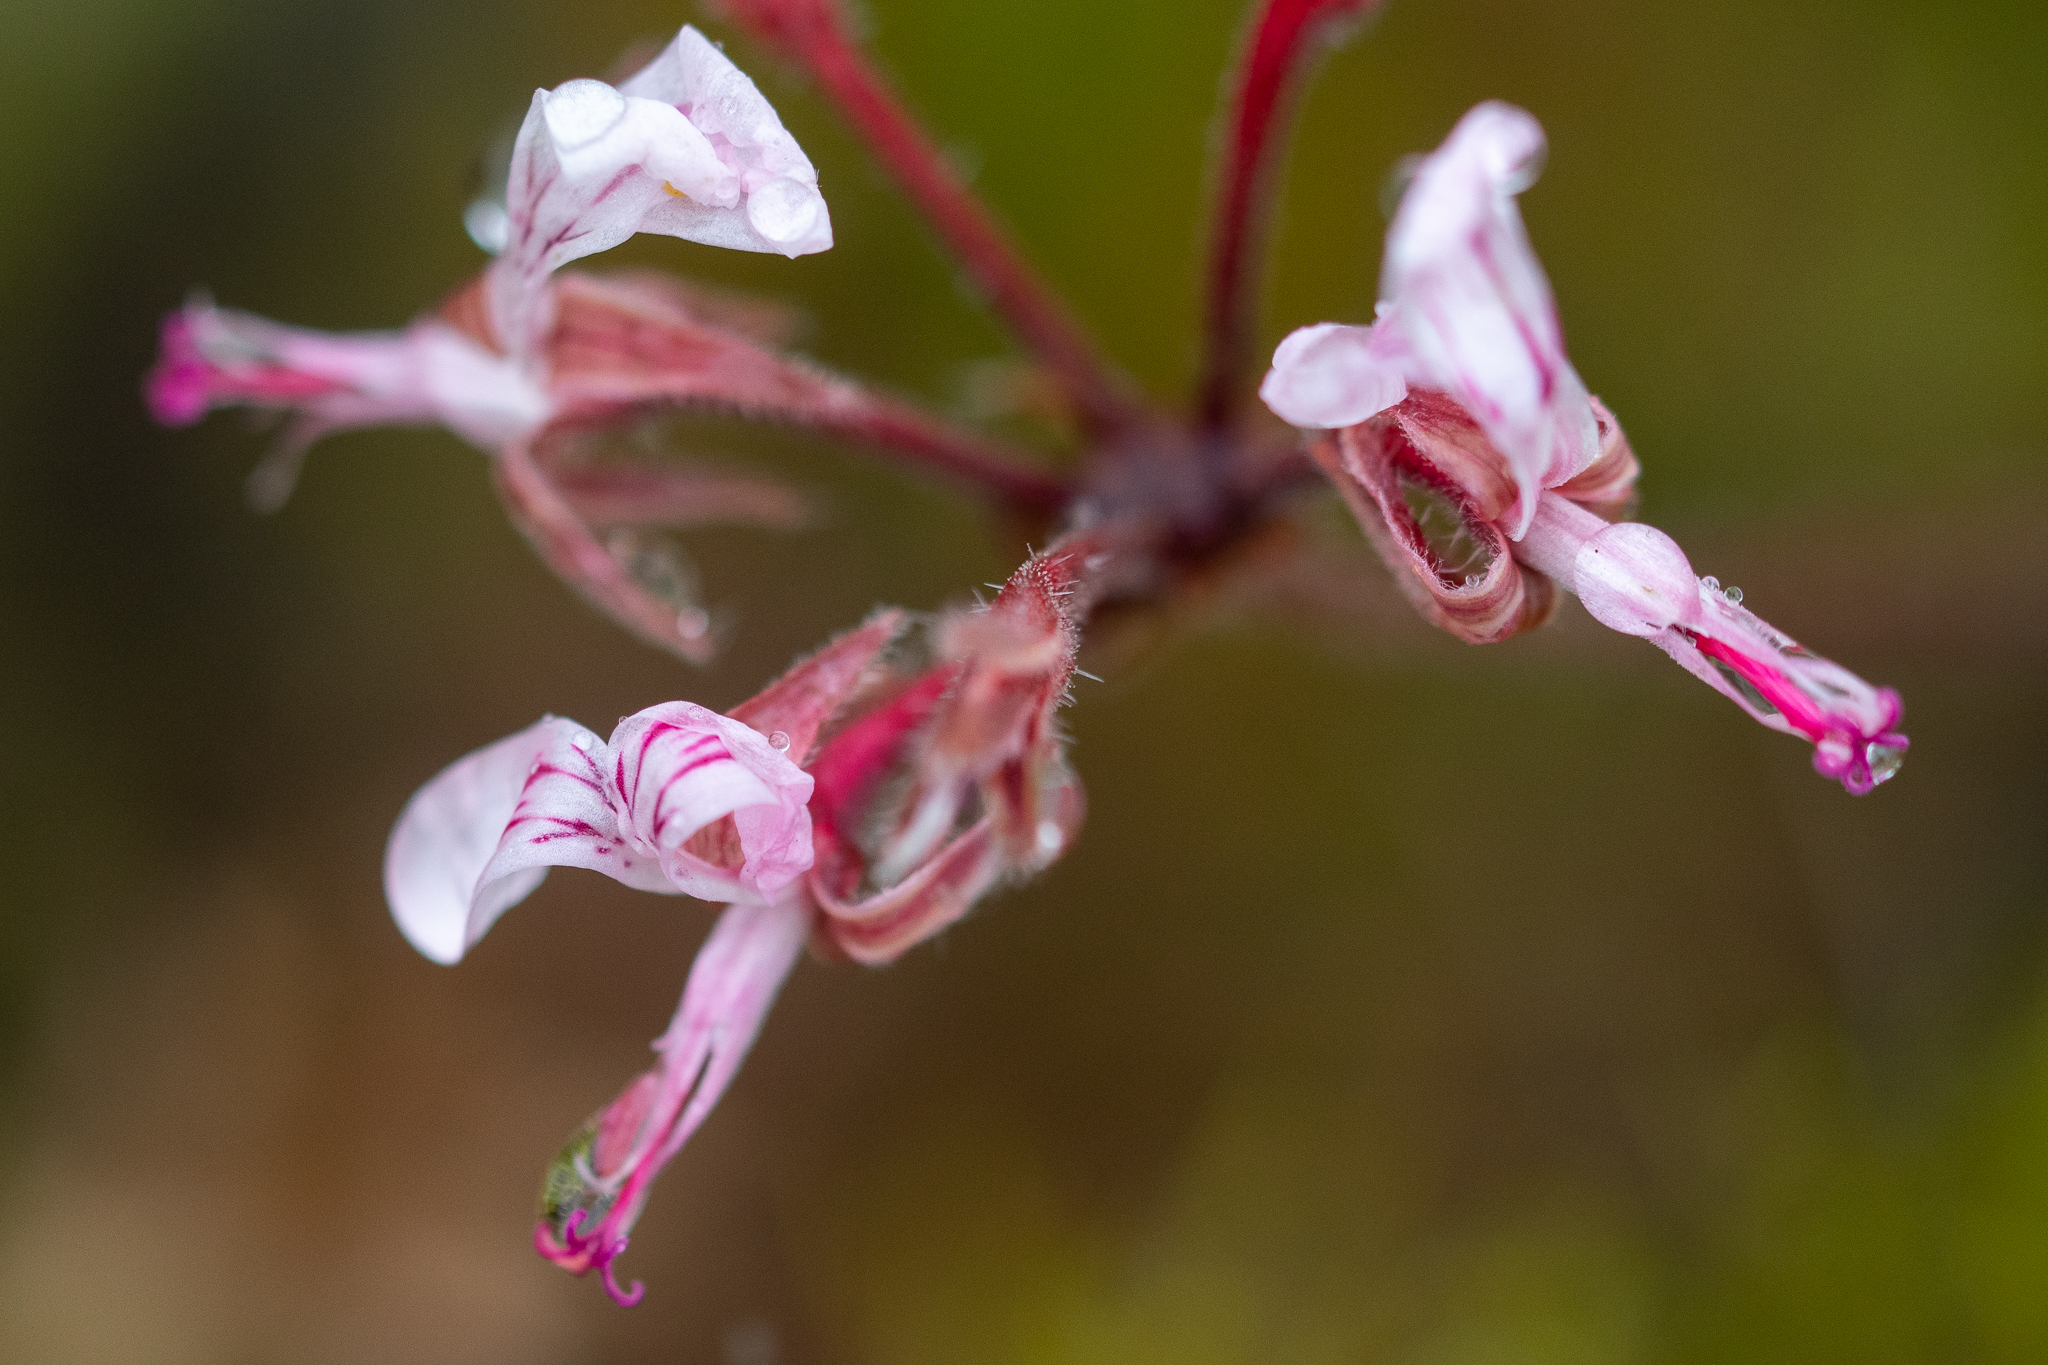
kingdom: Plantae
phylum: Tracheophyta
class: Magnoliopsida
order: Geraniales
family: Geraniaceae
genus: Pelargonium
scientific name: Pelargonium dipetalum
